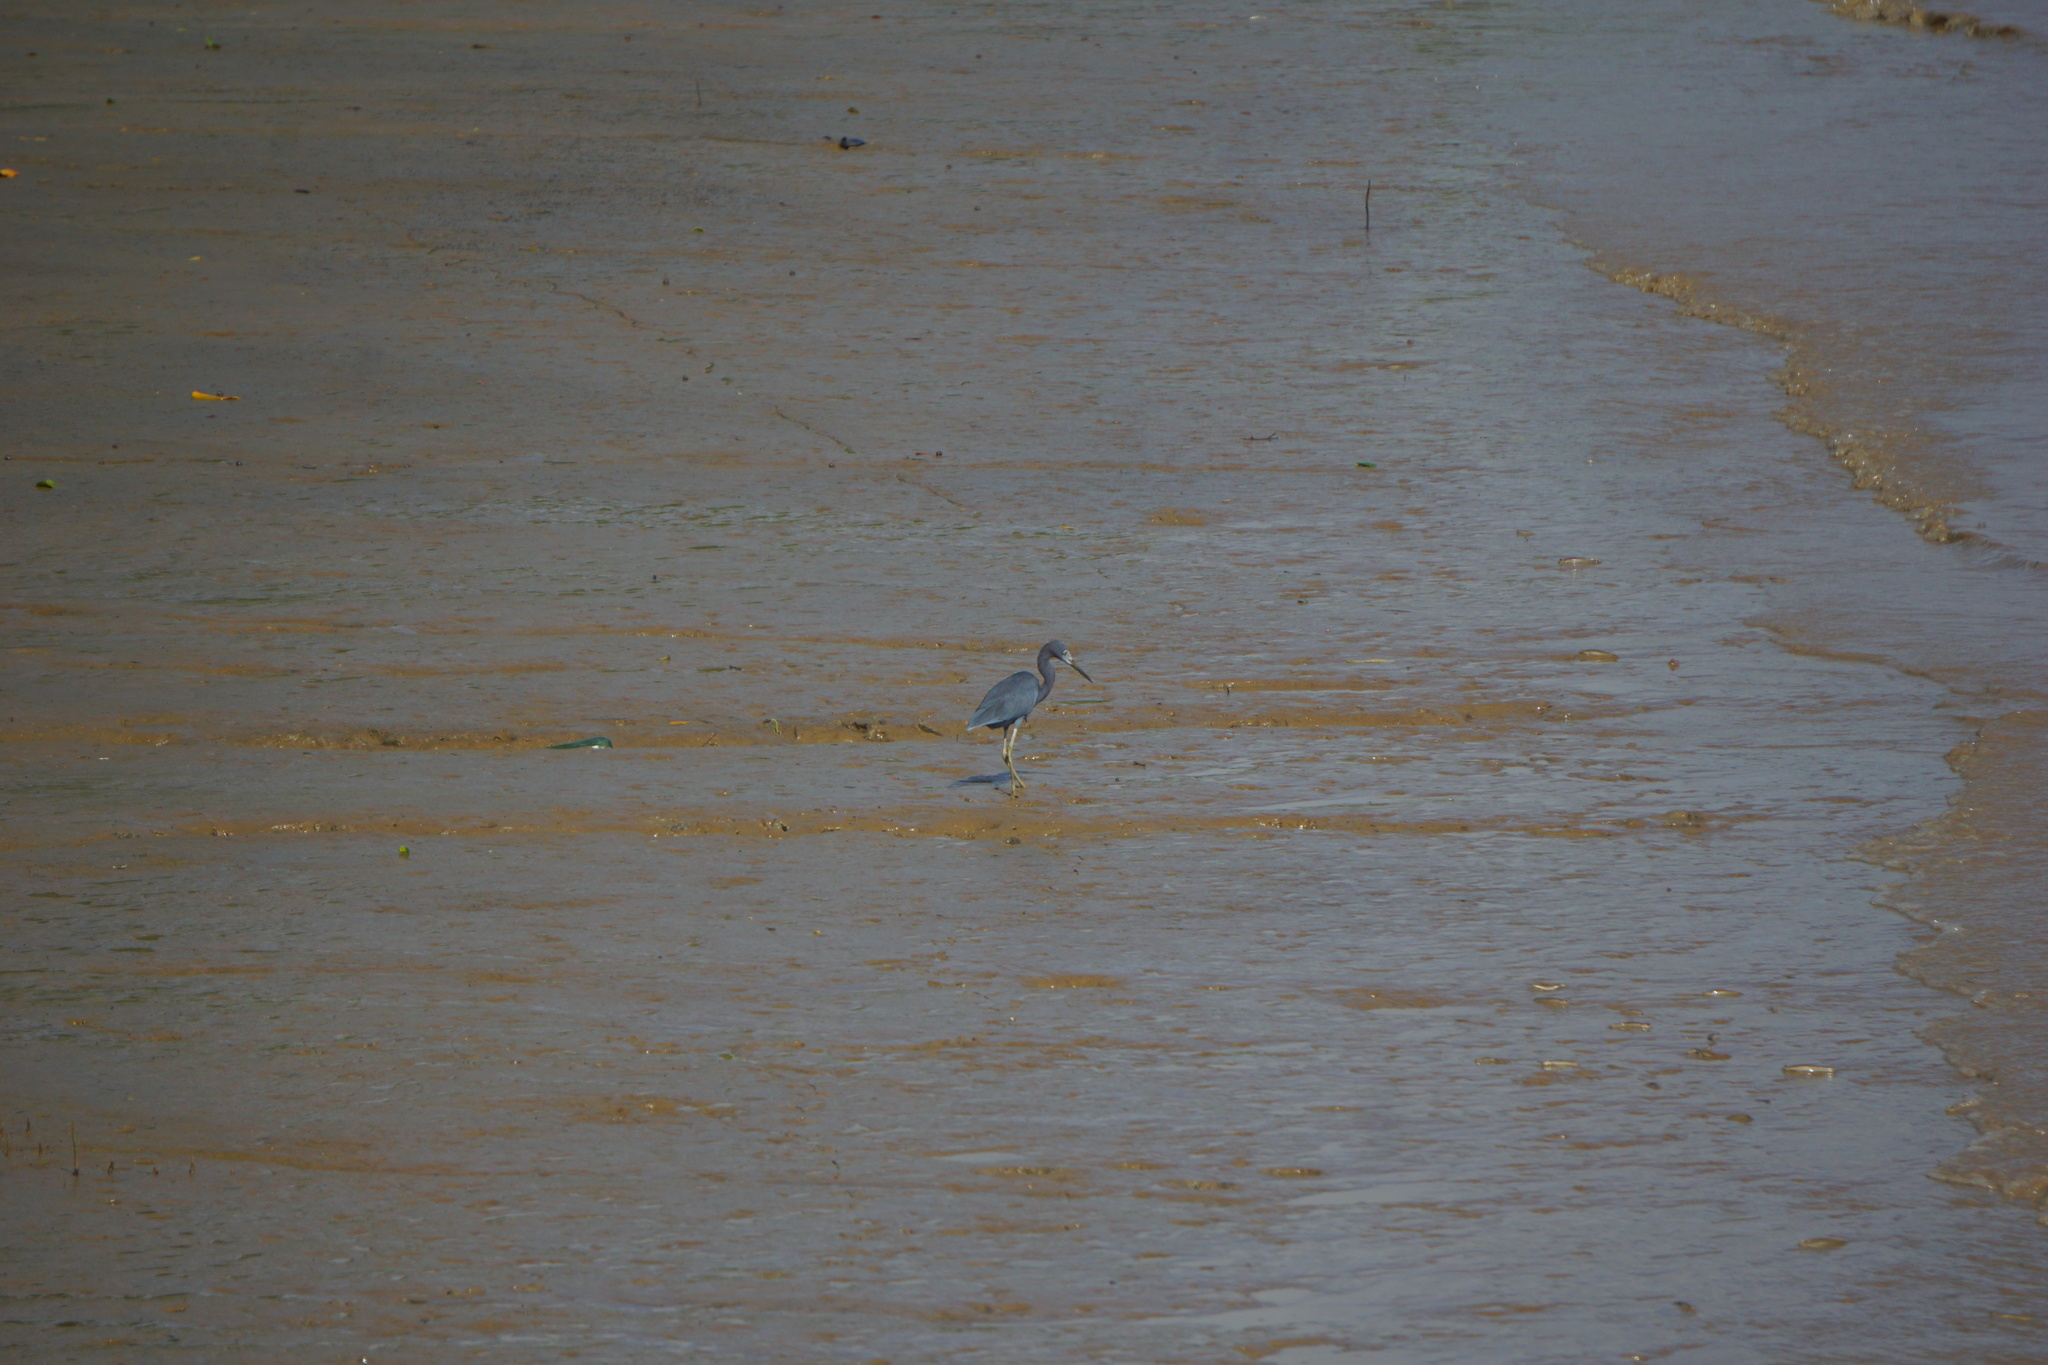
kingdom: Animalia
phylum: Chordata
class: Aves
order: Pelecaniformes
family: Ardeidae
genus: Egretta
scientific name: Egretta caerulea
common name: Little blue heron
